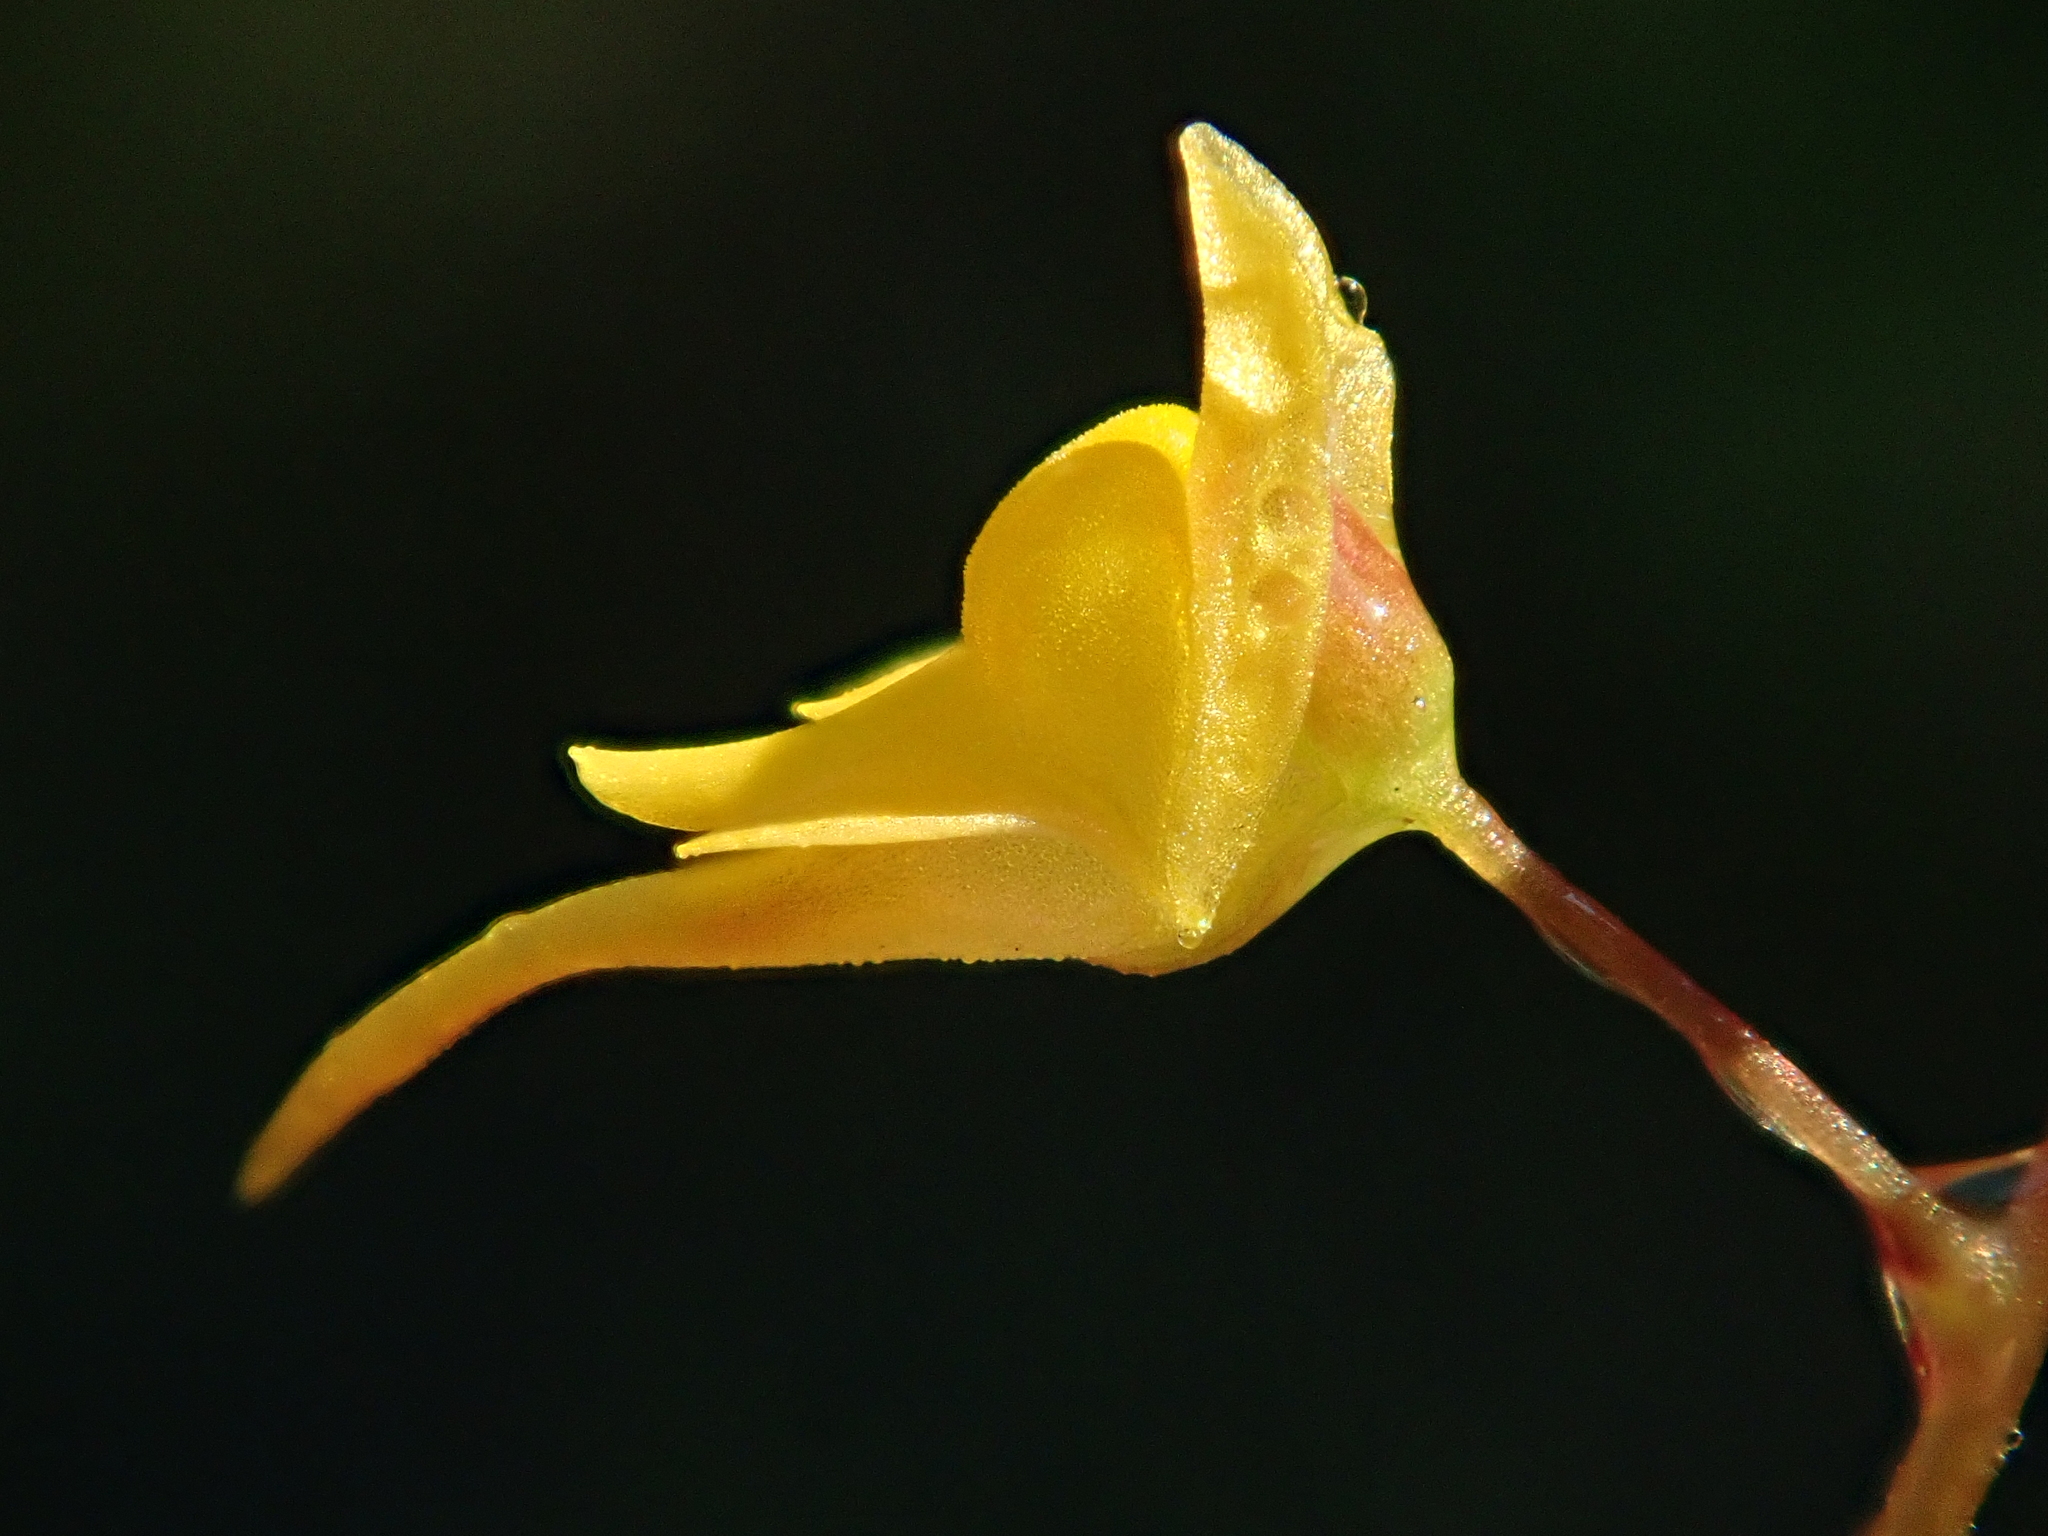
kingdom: Plantae
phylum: Tracheophyta
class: Magnoliopsida
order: Lamiales
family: Lentibulariaceae
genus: Utricularia
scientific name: Utricularia pusilla
